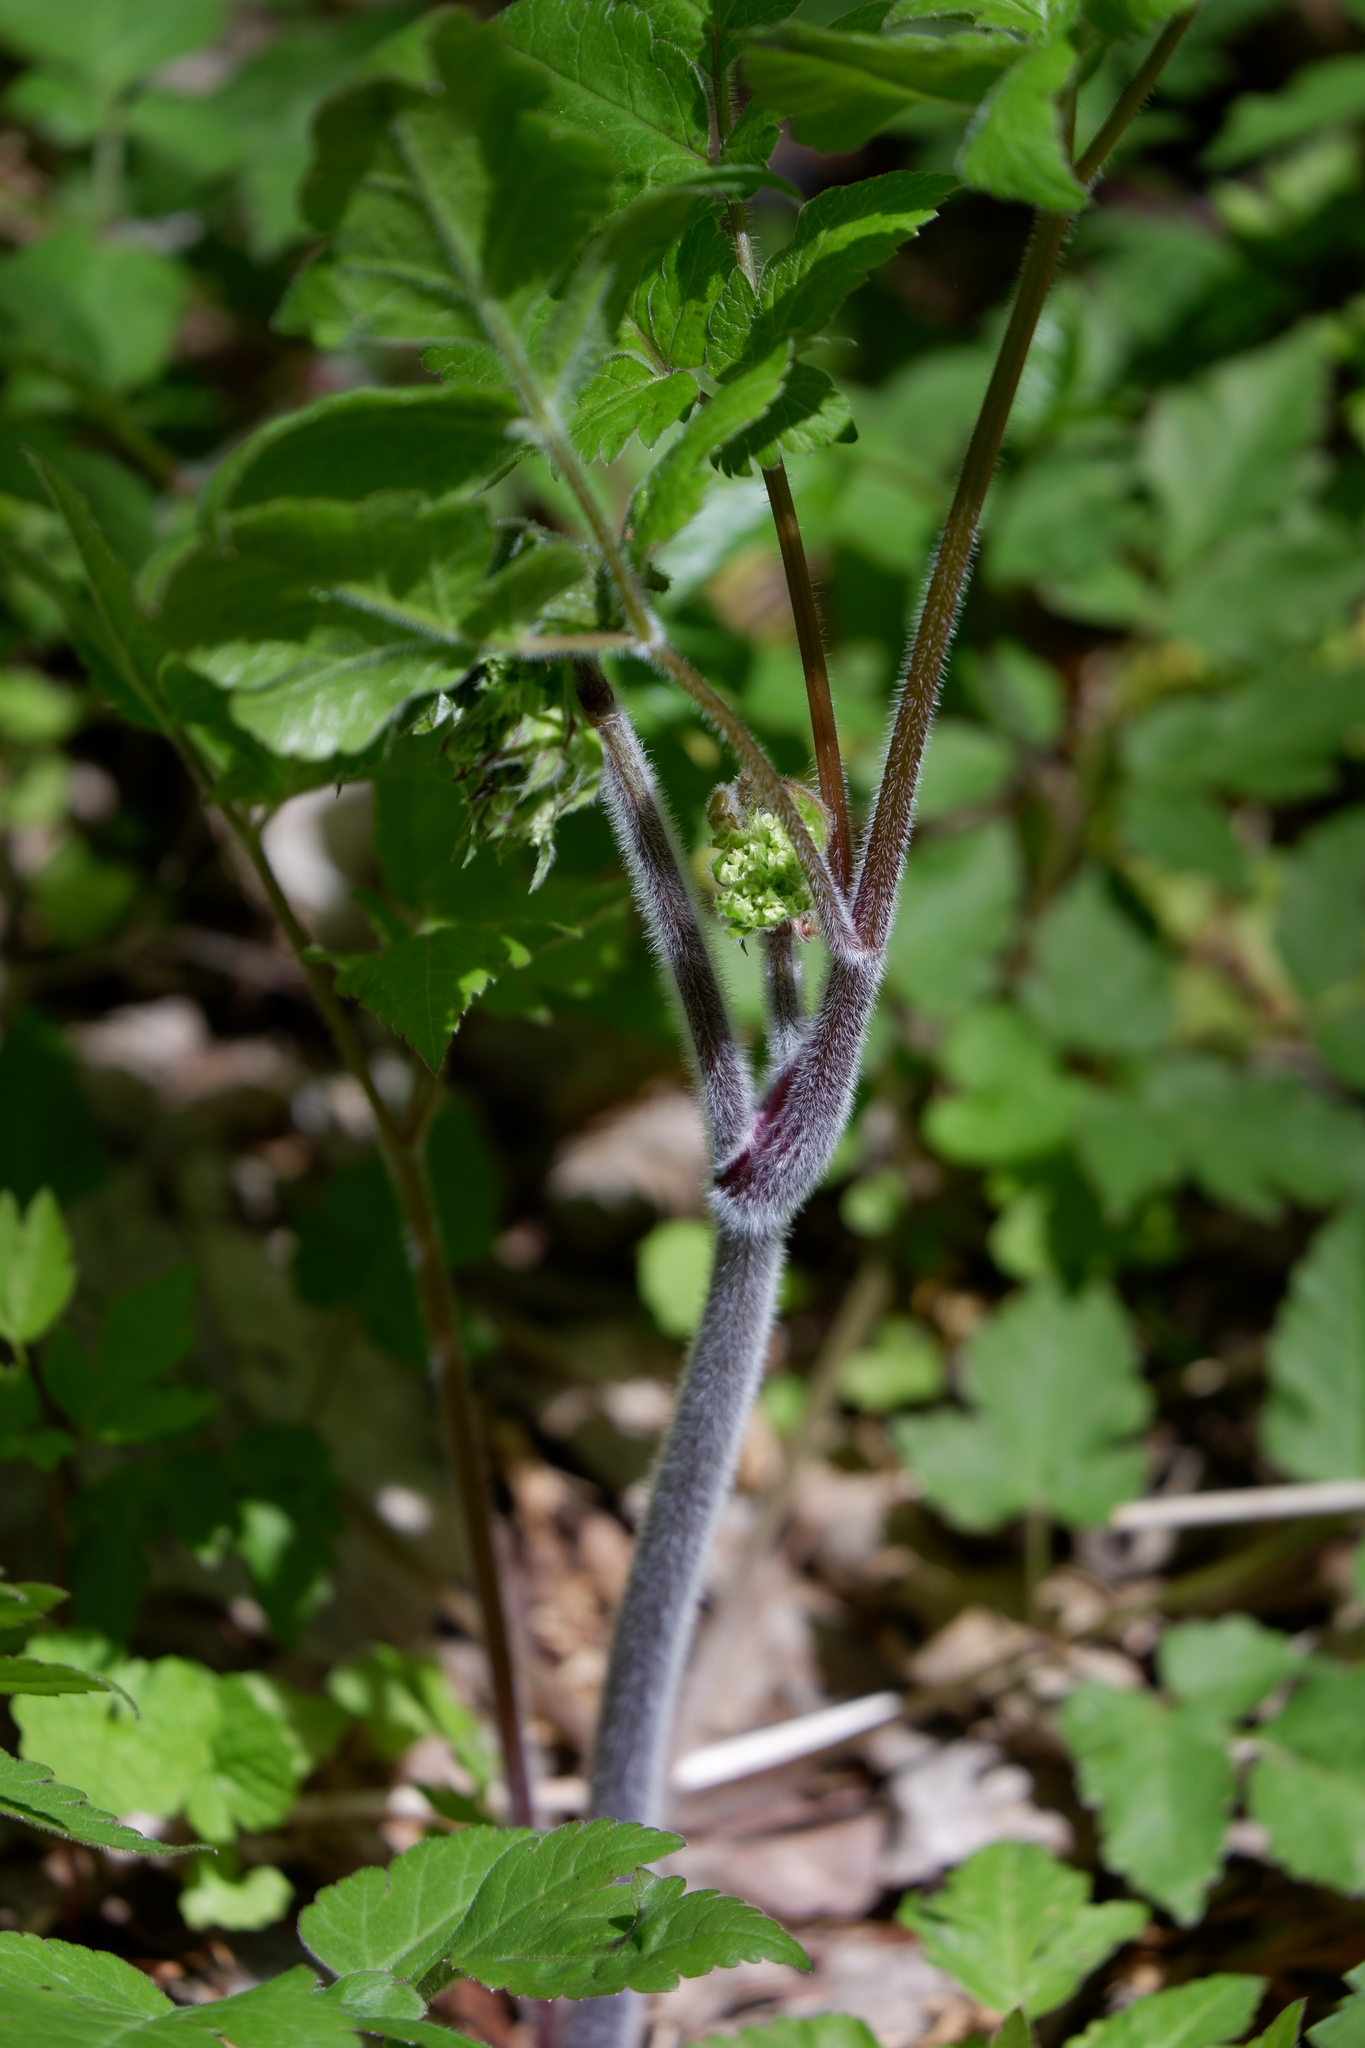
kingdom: Plantae
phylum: Tracheophyta
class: Magnoliopsida
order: Apiales
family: Apiaceae
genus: Osmorhiza
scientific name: Osmorhiza longistylis
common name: Smooth sweet cicely
